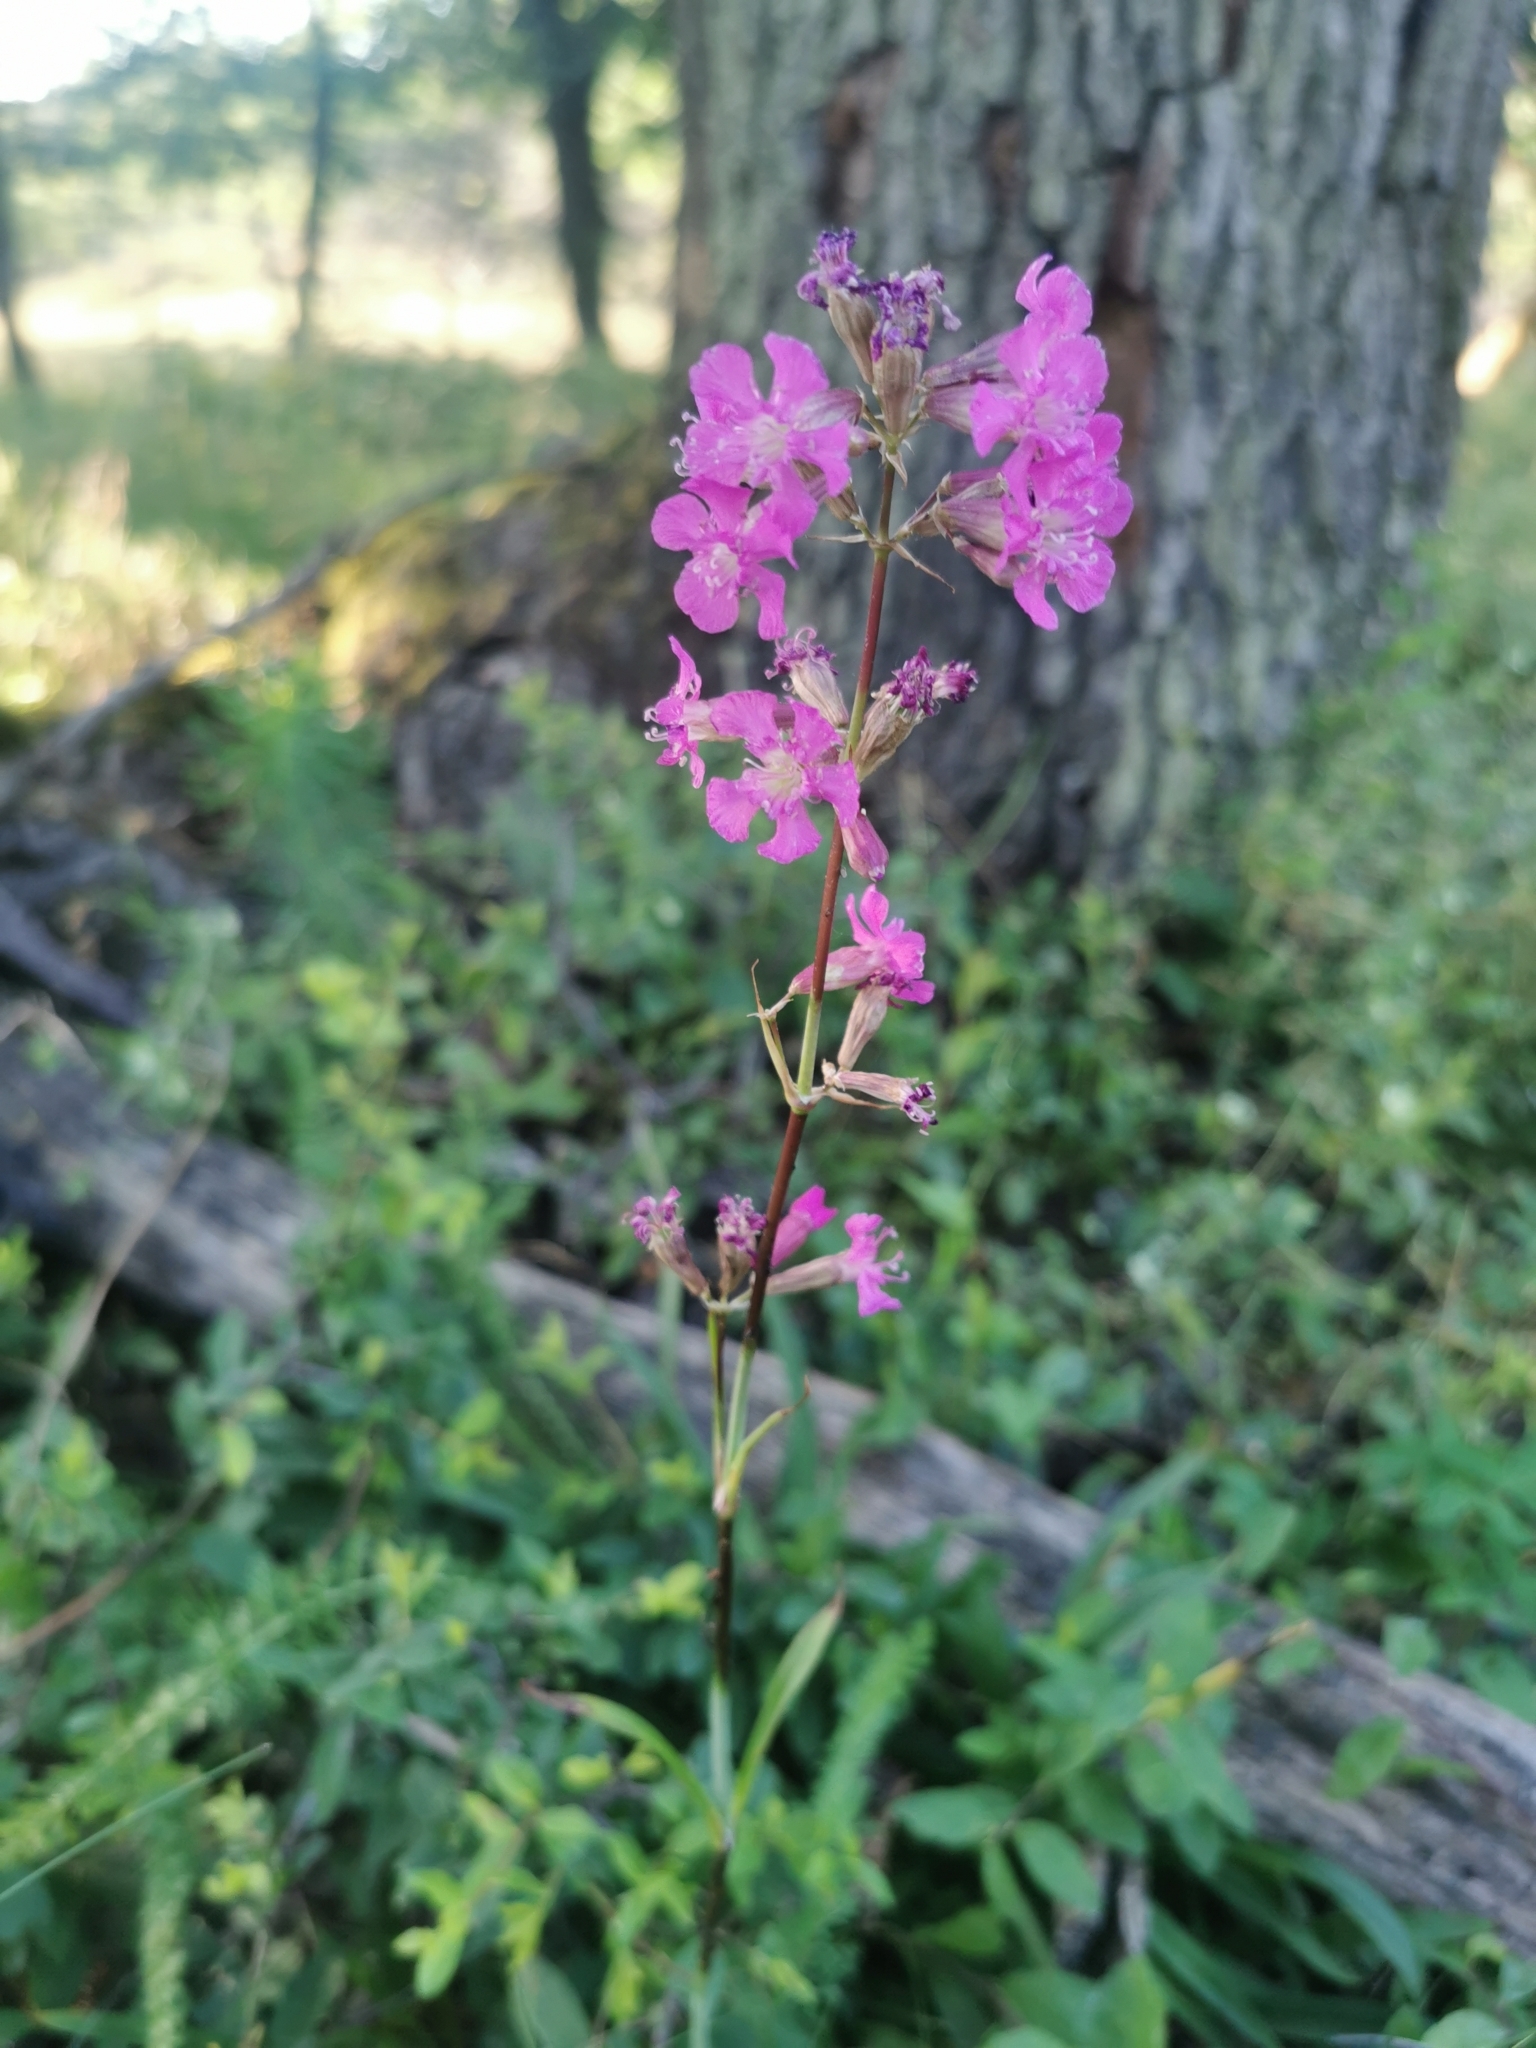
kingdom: Plantae
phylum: Tracheophyta
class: Magnoliopsida
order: Caryophyllales
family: Caryophyllaceae
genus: Viscaria
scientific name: Viscaria vulgaris
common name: Clammy campion
